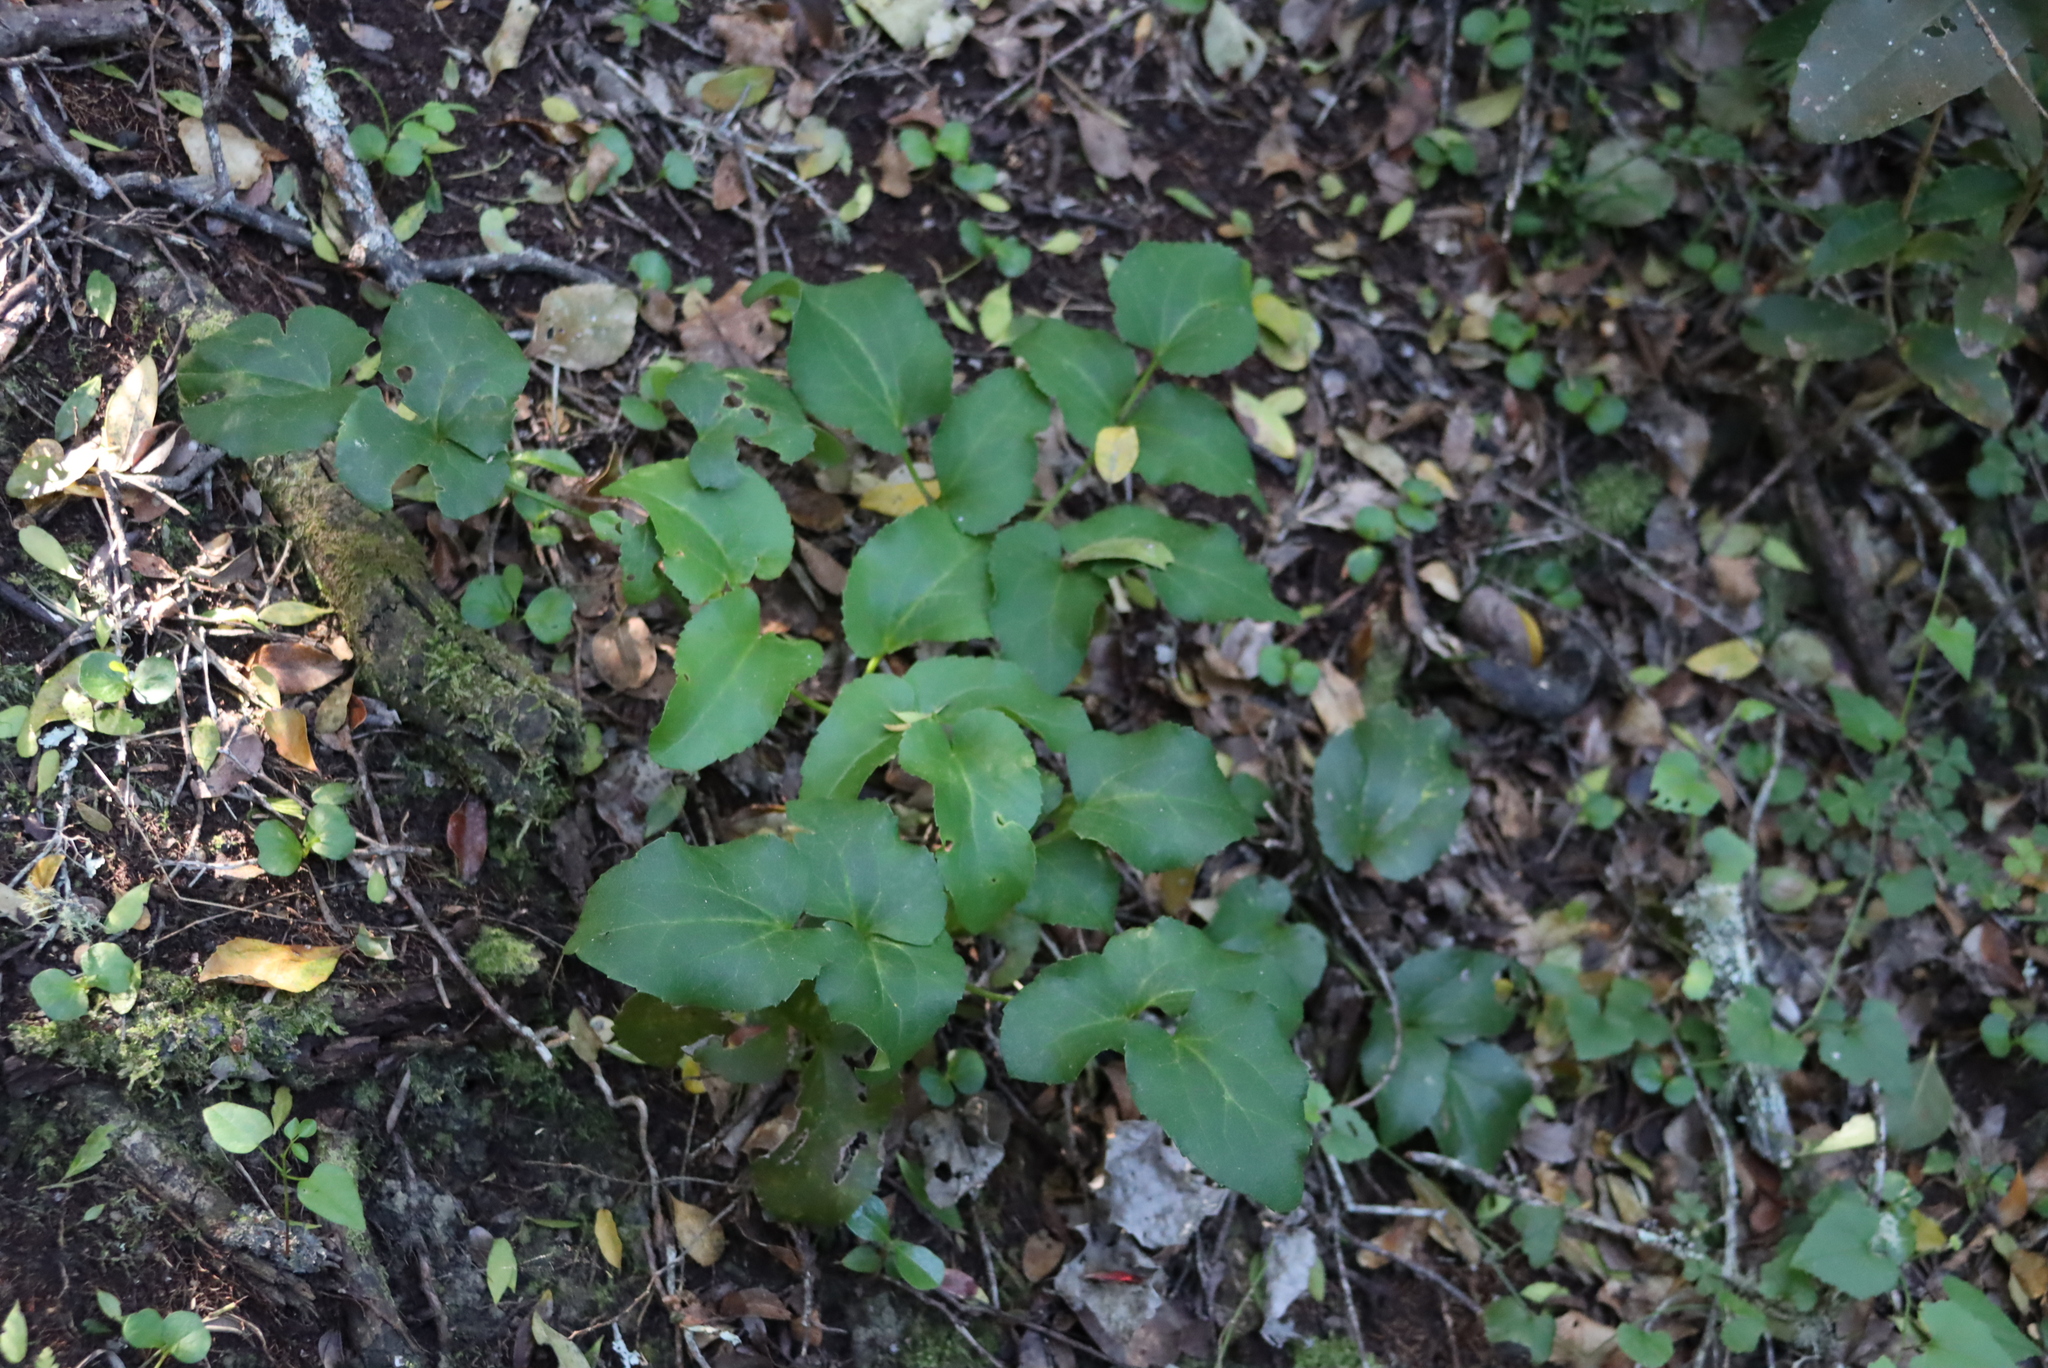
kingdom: Plantae
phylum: Tracheophyta
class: Magnoliopsida
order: Ranunculales
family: Ranunculaceae
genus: Knowltonia
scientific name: Knowltonia vesicatoria
